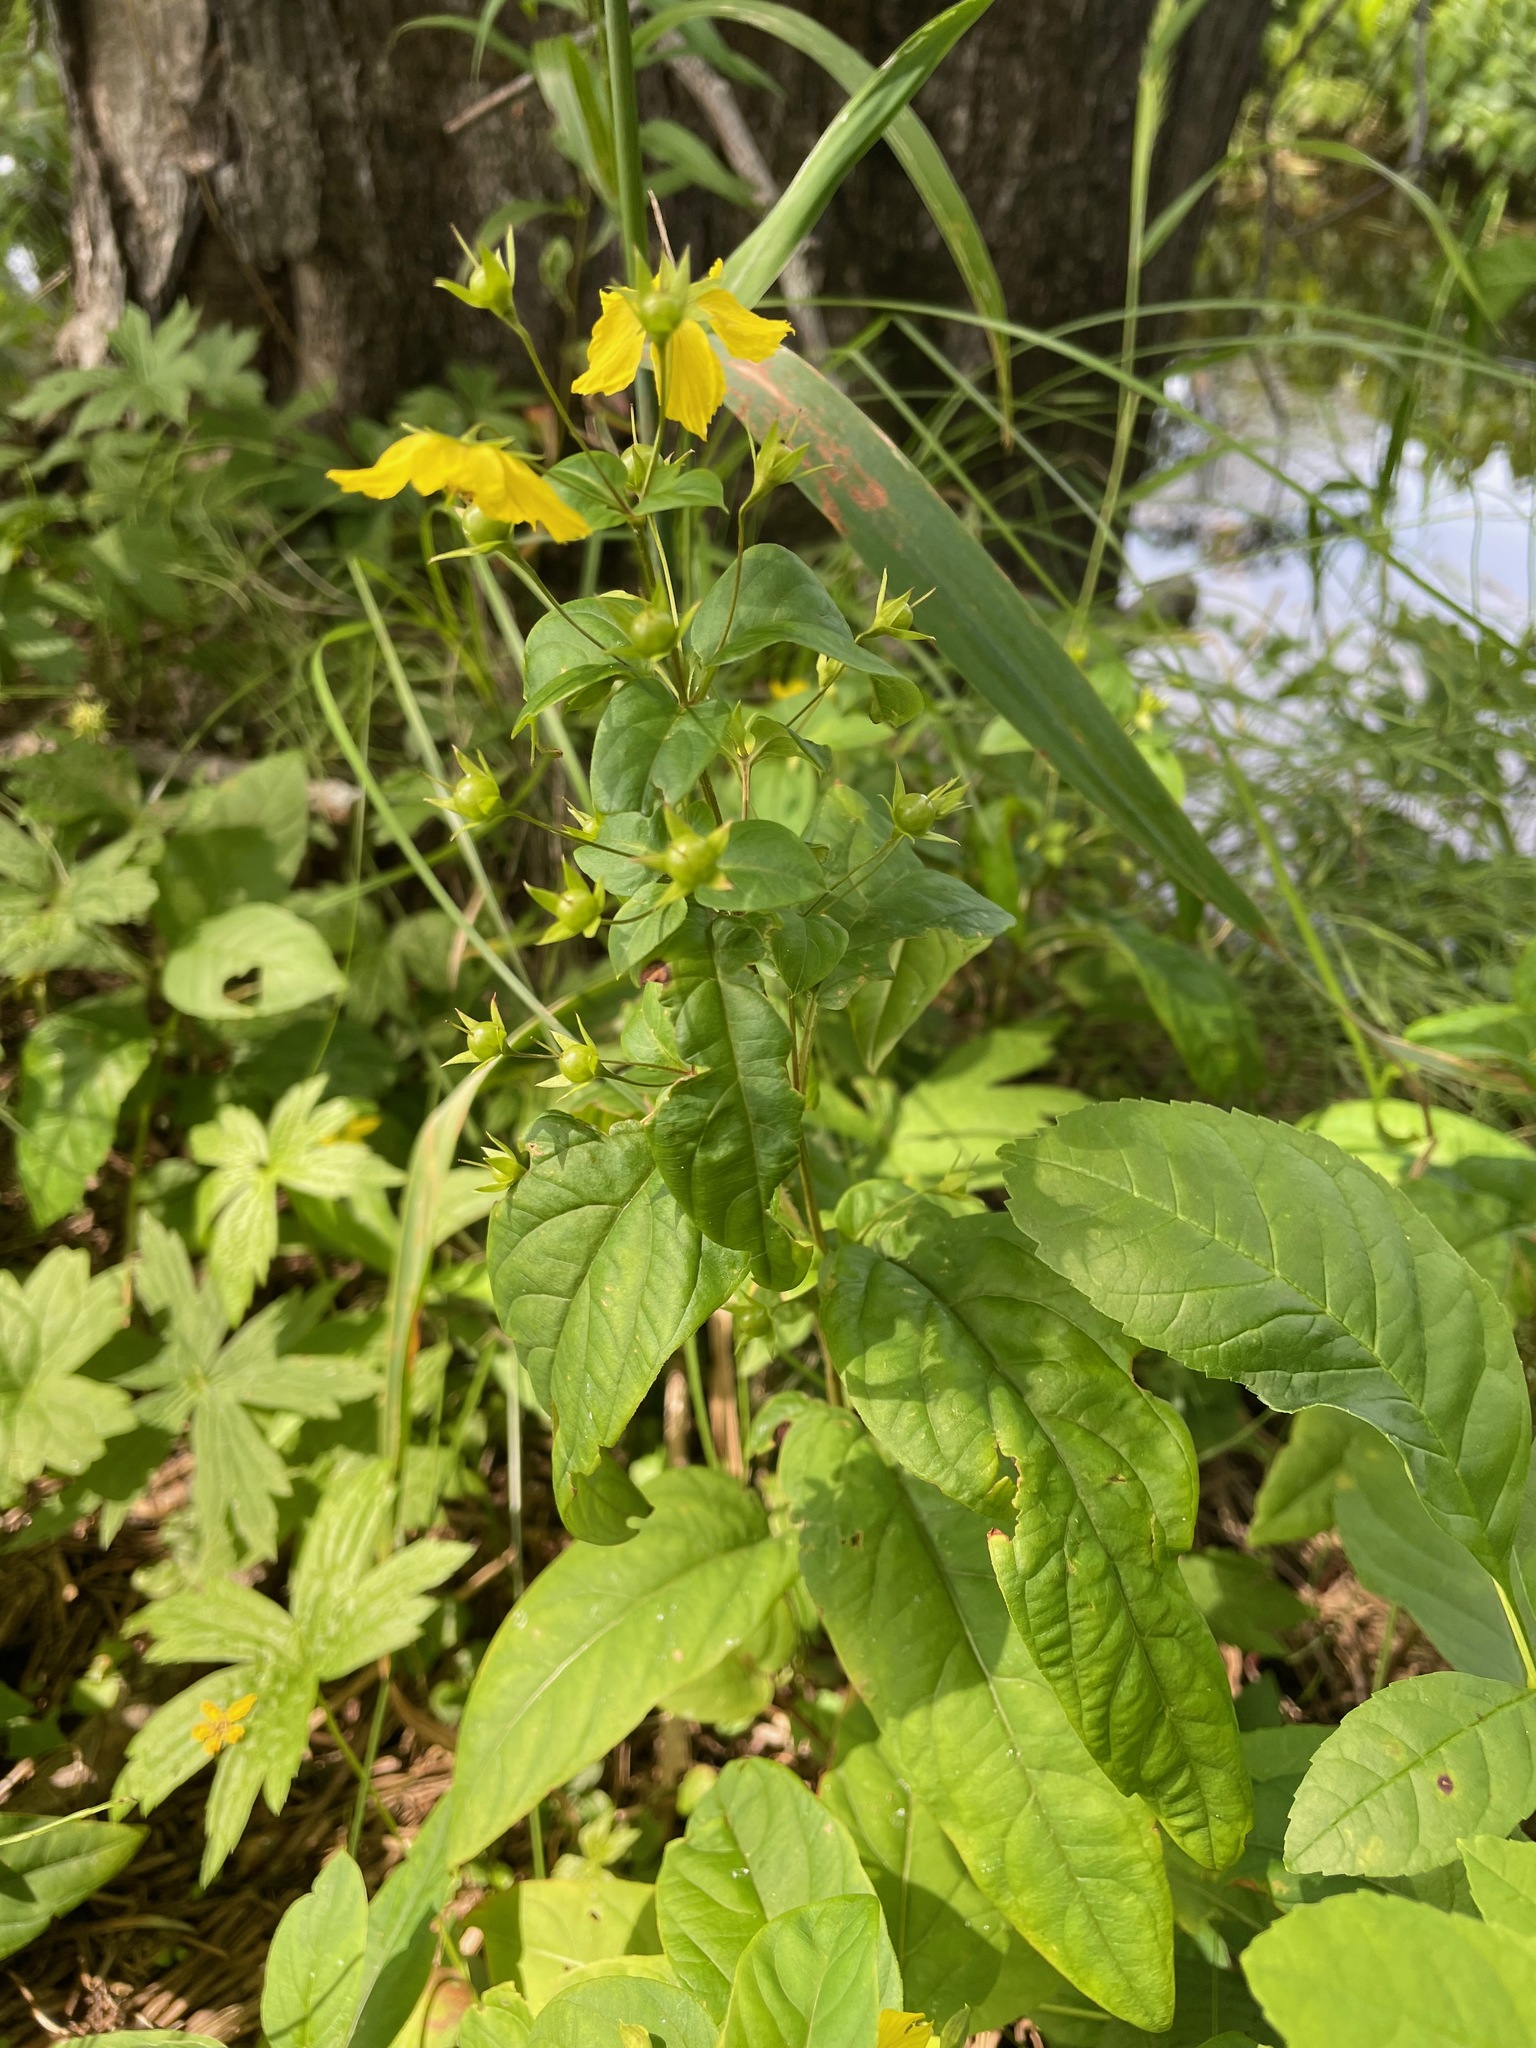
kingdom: Plantae
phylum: Tracheophyta
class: Magnoliopsida
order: Ericales
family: Primulaceae
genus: Lysimachia
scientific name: Lysimachia ciliata
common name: Fringed loosestrife
